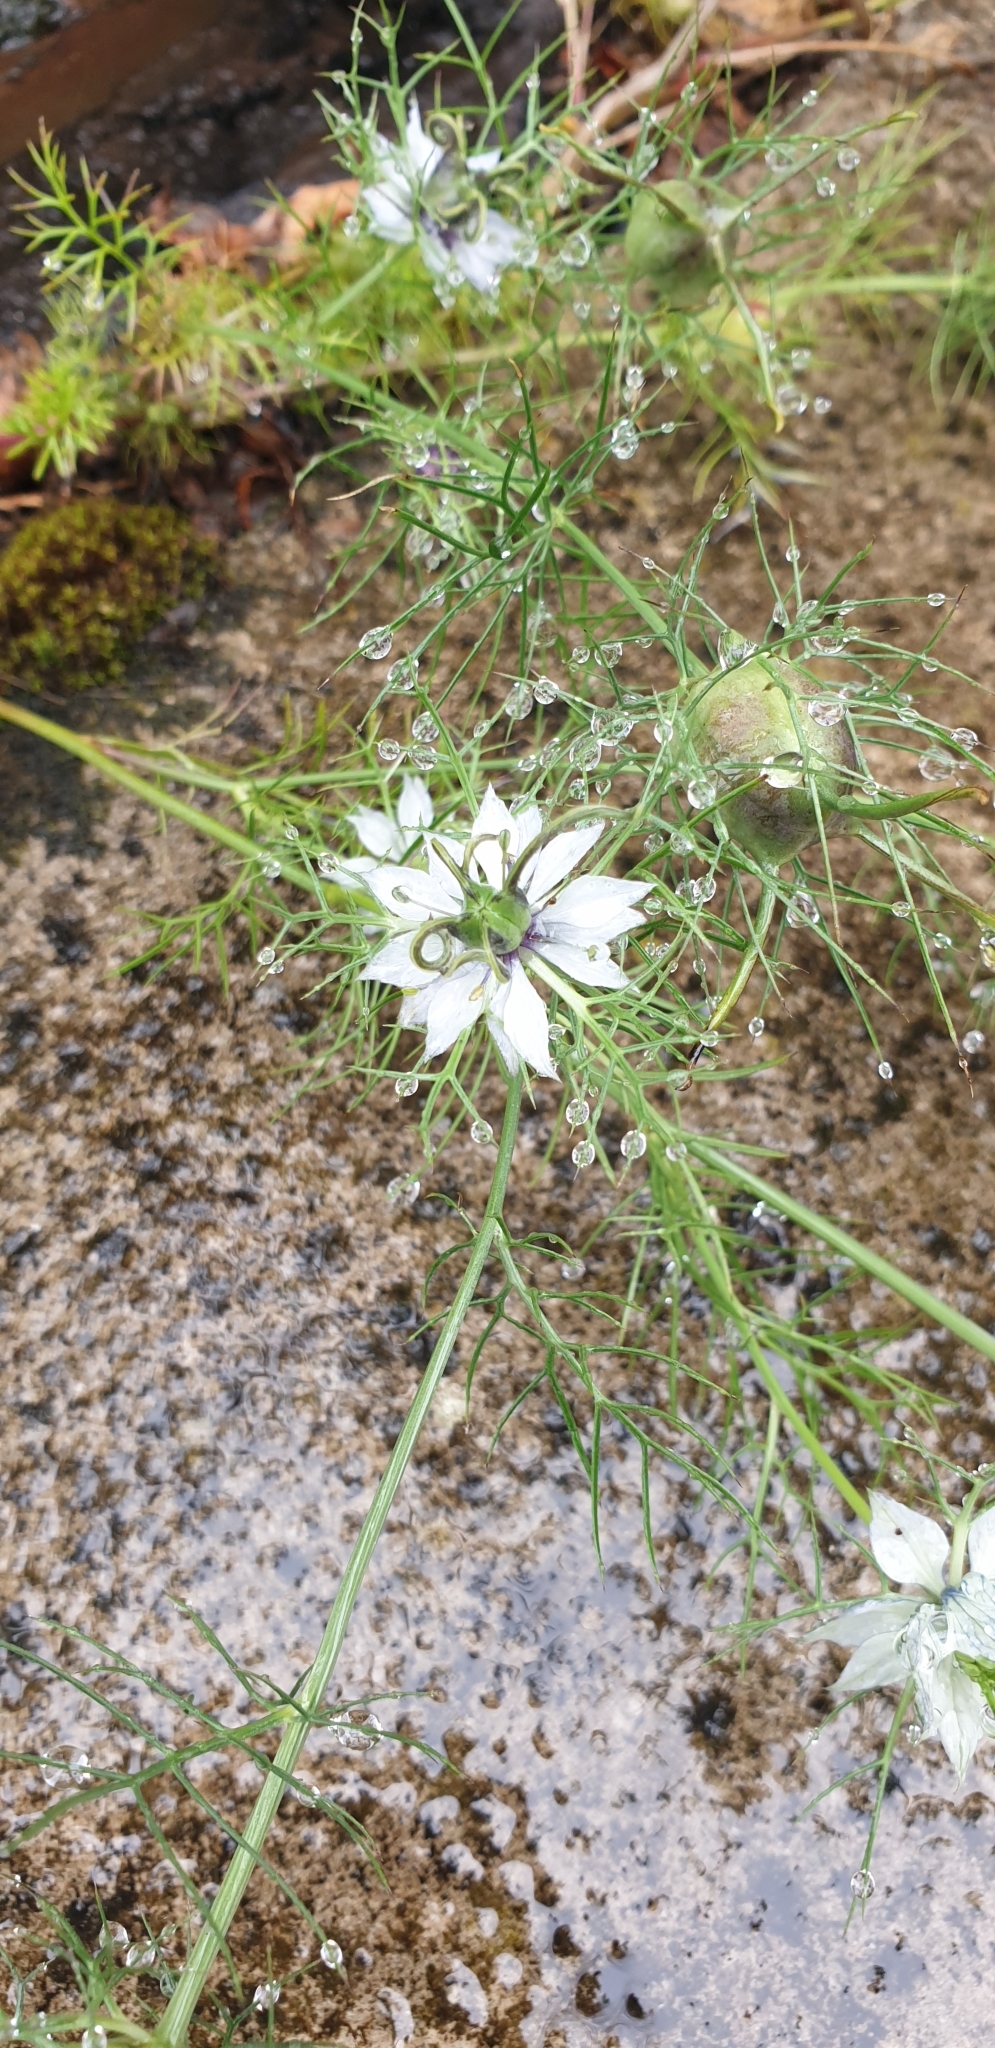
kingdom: Plantae
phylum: Tracheophyta
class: Magnoliopsida
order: Ranunculales
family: Ranunculaceae
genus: Nigella
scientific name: Nigella damascena
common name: Love-in-a-mist
